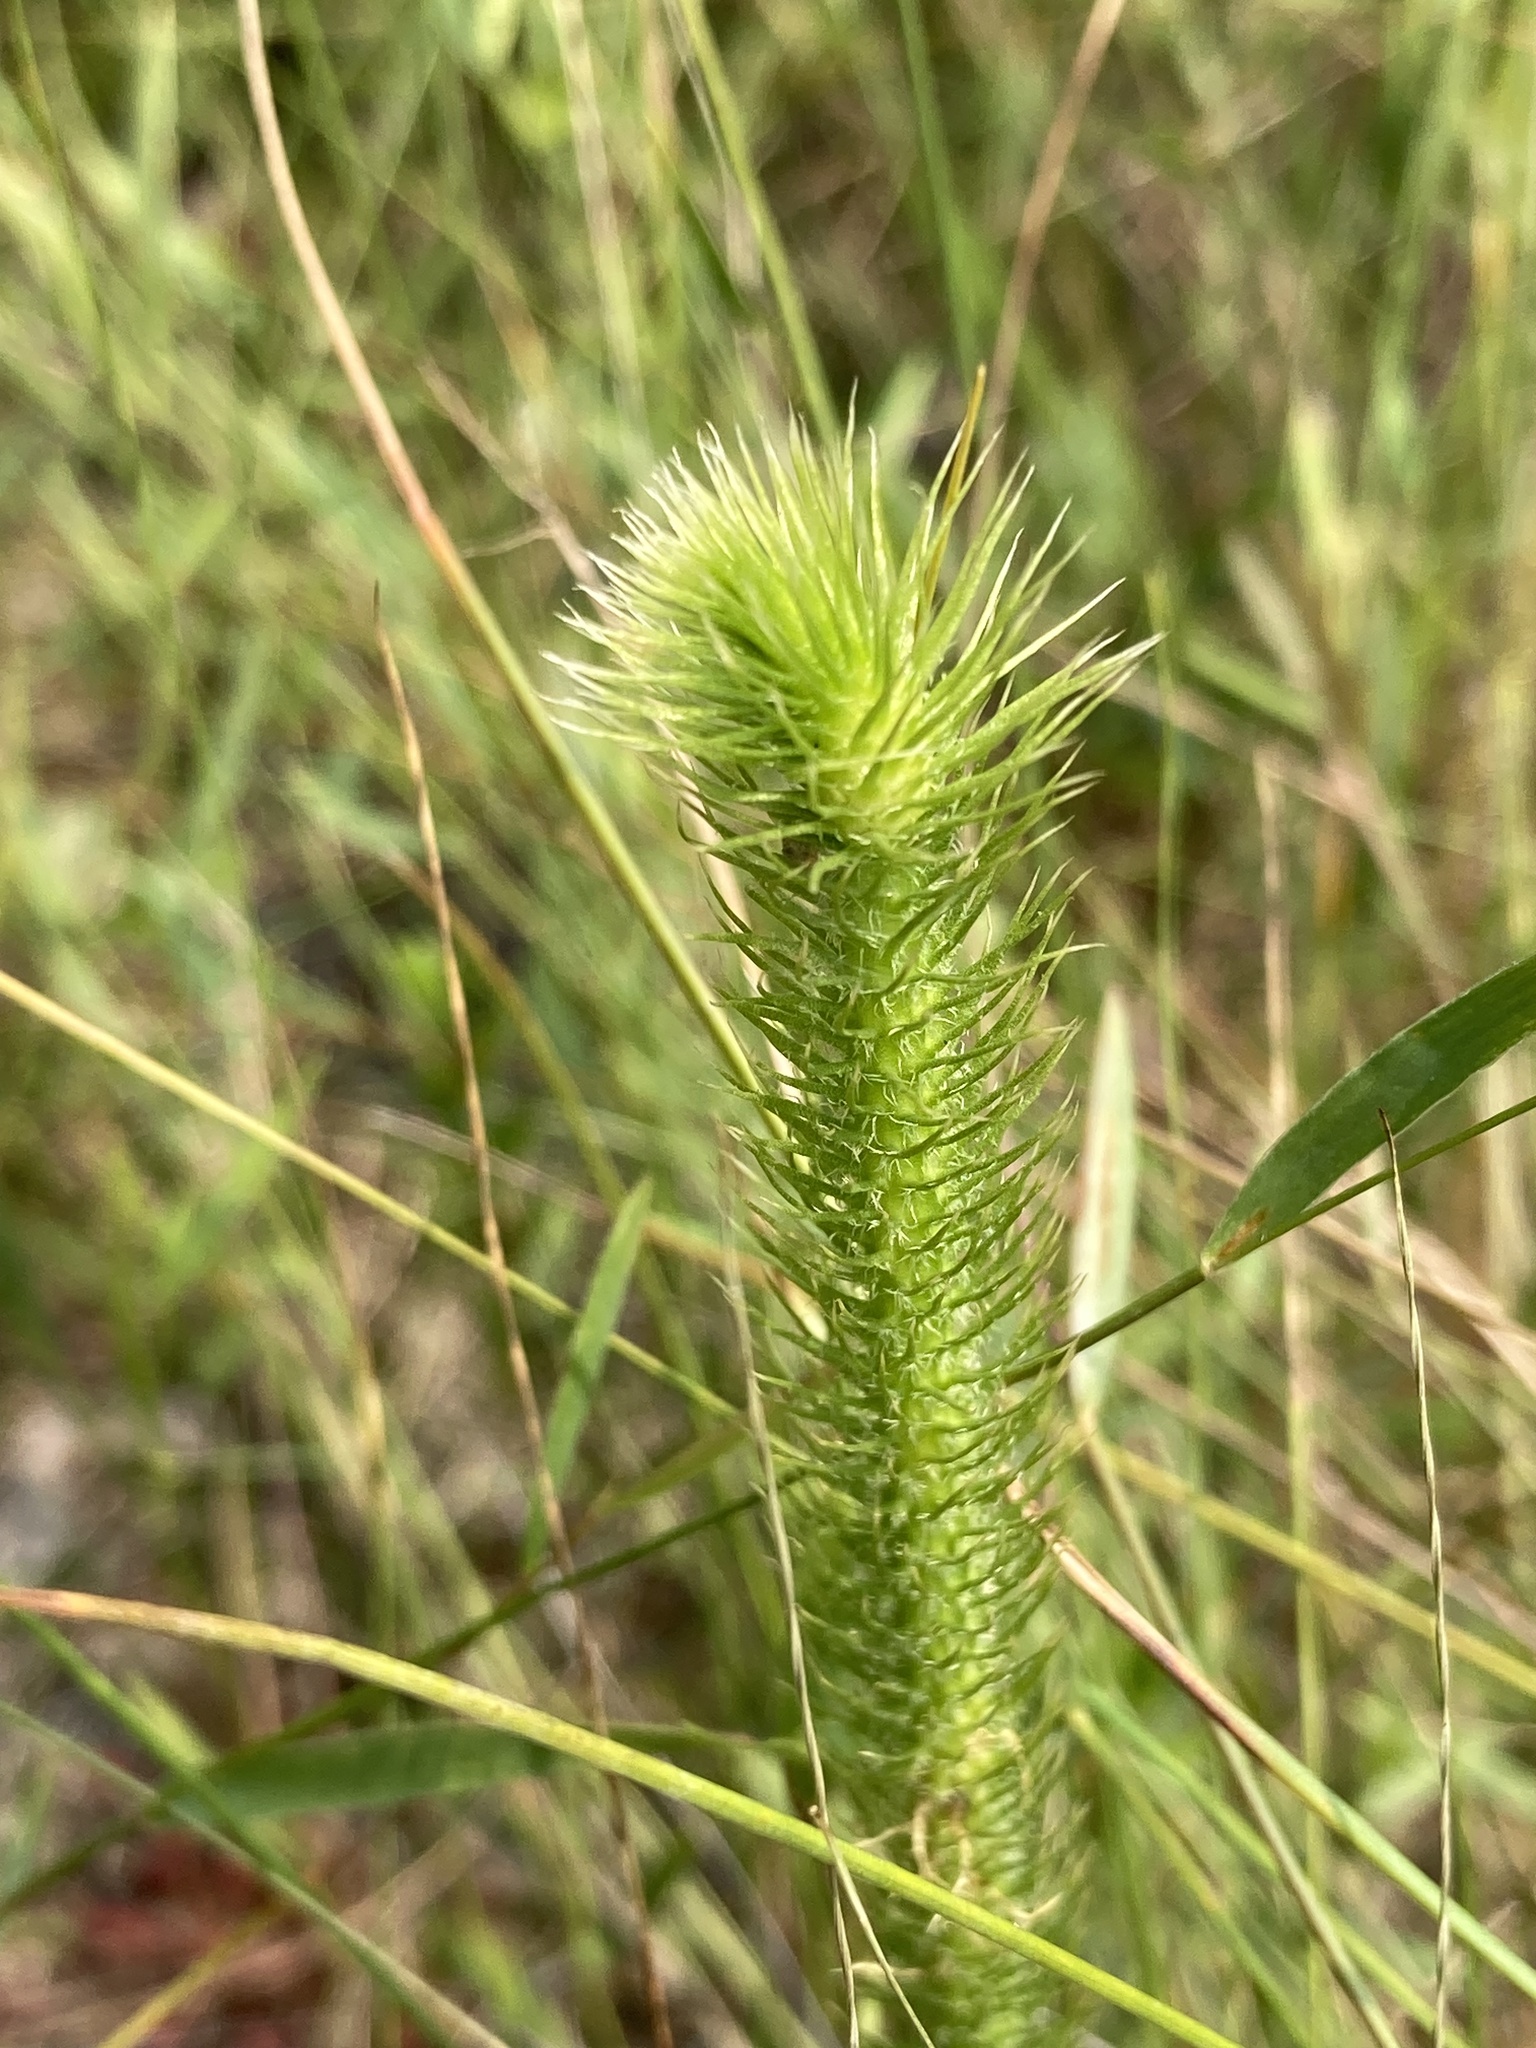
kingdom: Plantae
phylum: Tracheophyta
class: Lycopodiopsida
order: Lycopodiales
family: Lycopodiaceae
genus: Lycopodiella
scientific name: Lycopodiella alopecuroides
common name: Foxtail clubmoss
